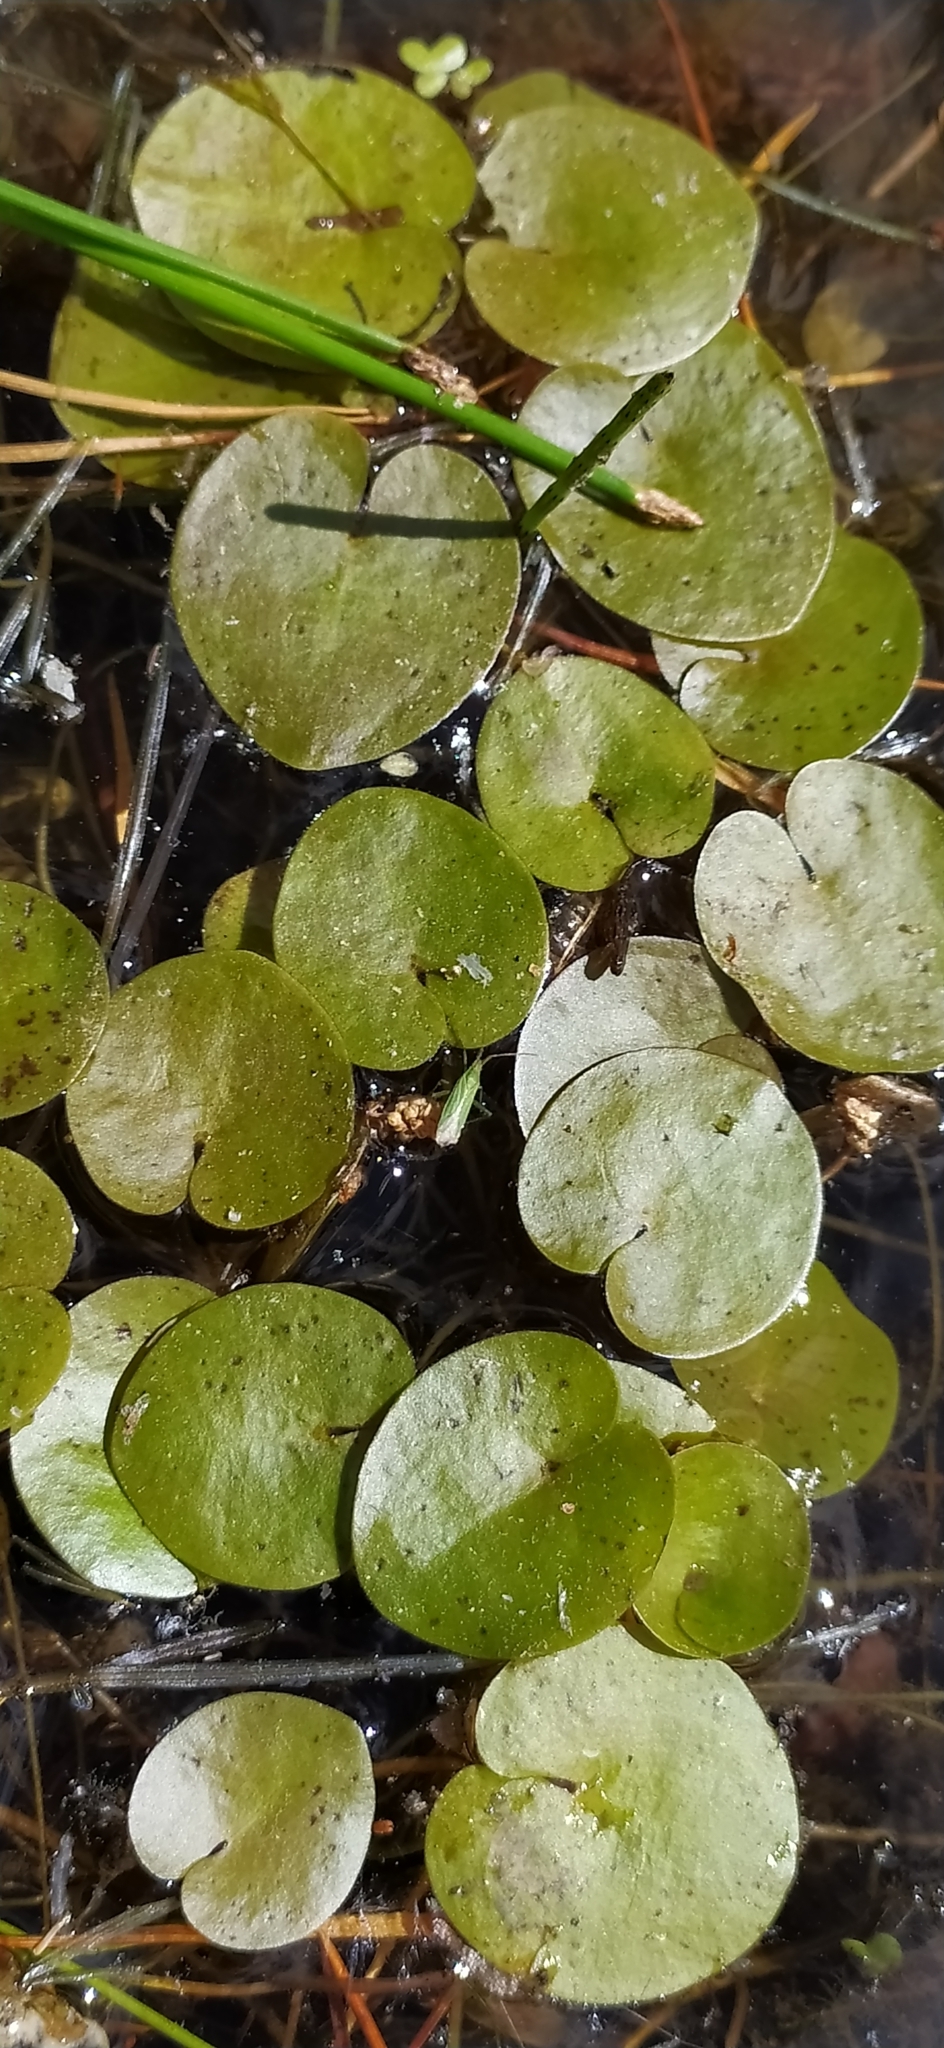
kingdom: Plantae
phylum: Tracheophyta
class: Liliopsida
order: Alismatales
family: Hydrocharitaceae
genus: Hydrocharis
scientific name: Hydrocharis morsus-ranae
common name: Frogbit
